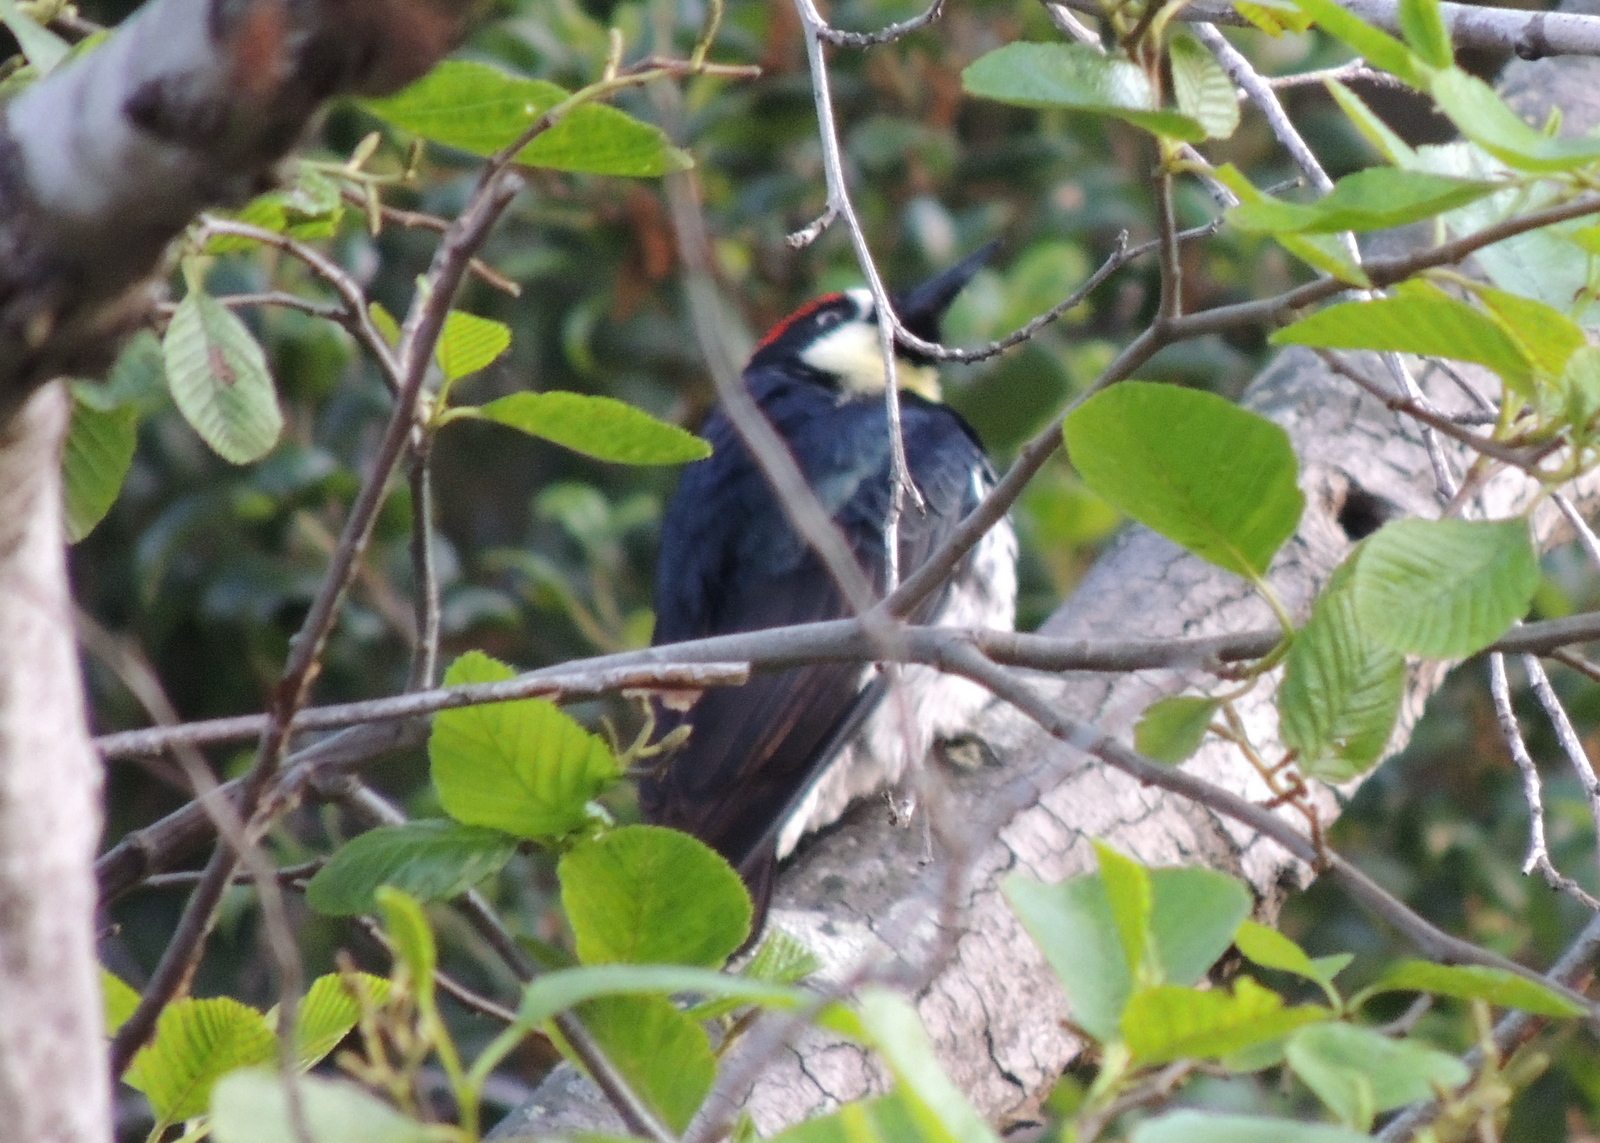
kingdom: Animalia
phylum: Chordata
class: Aves
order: Piciformes
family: Picidae
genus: Melanerpes
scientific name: Melanerpes formicivorus
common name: Acorn woodpecker
